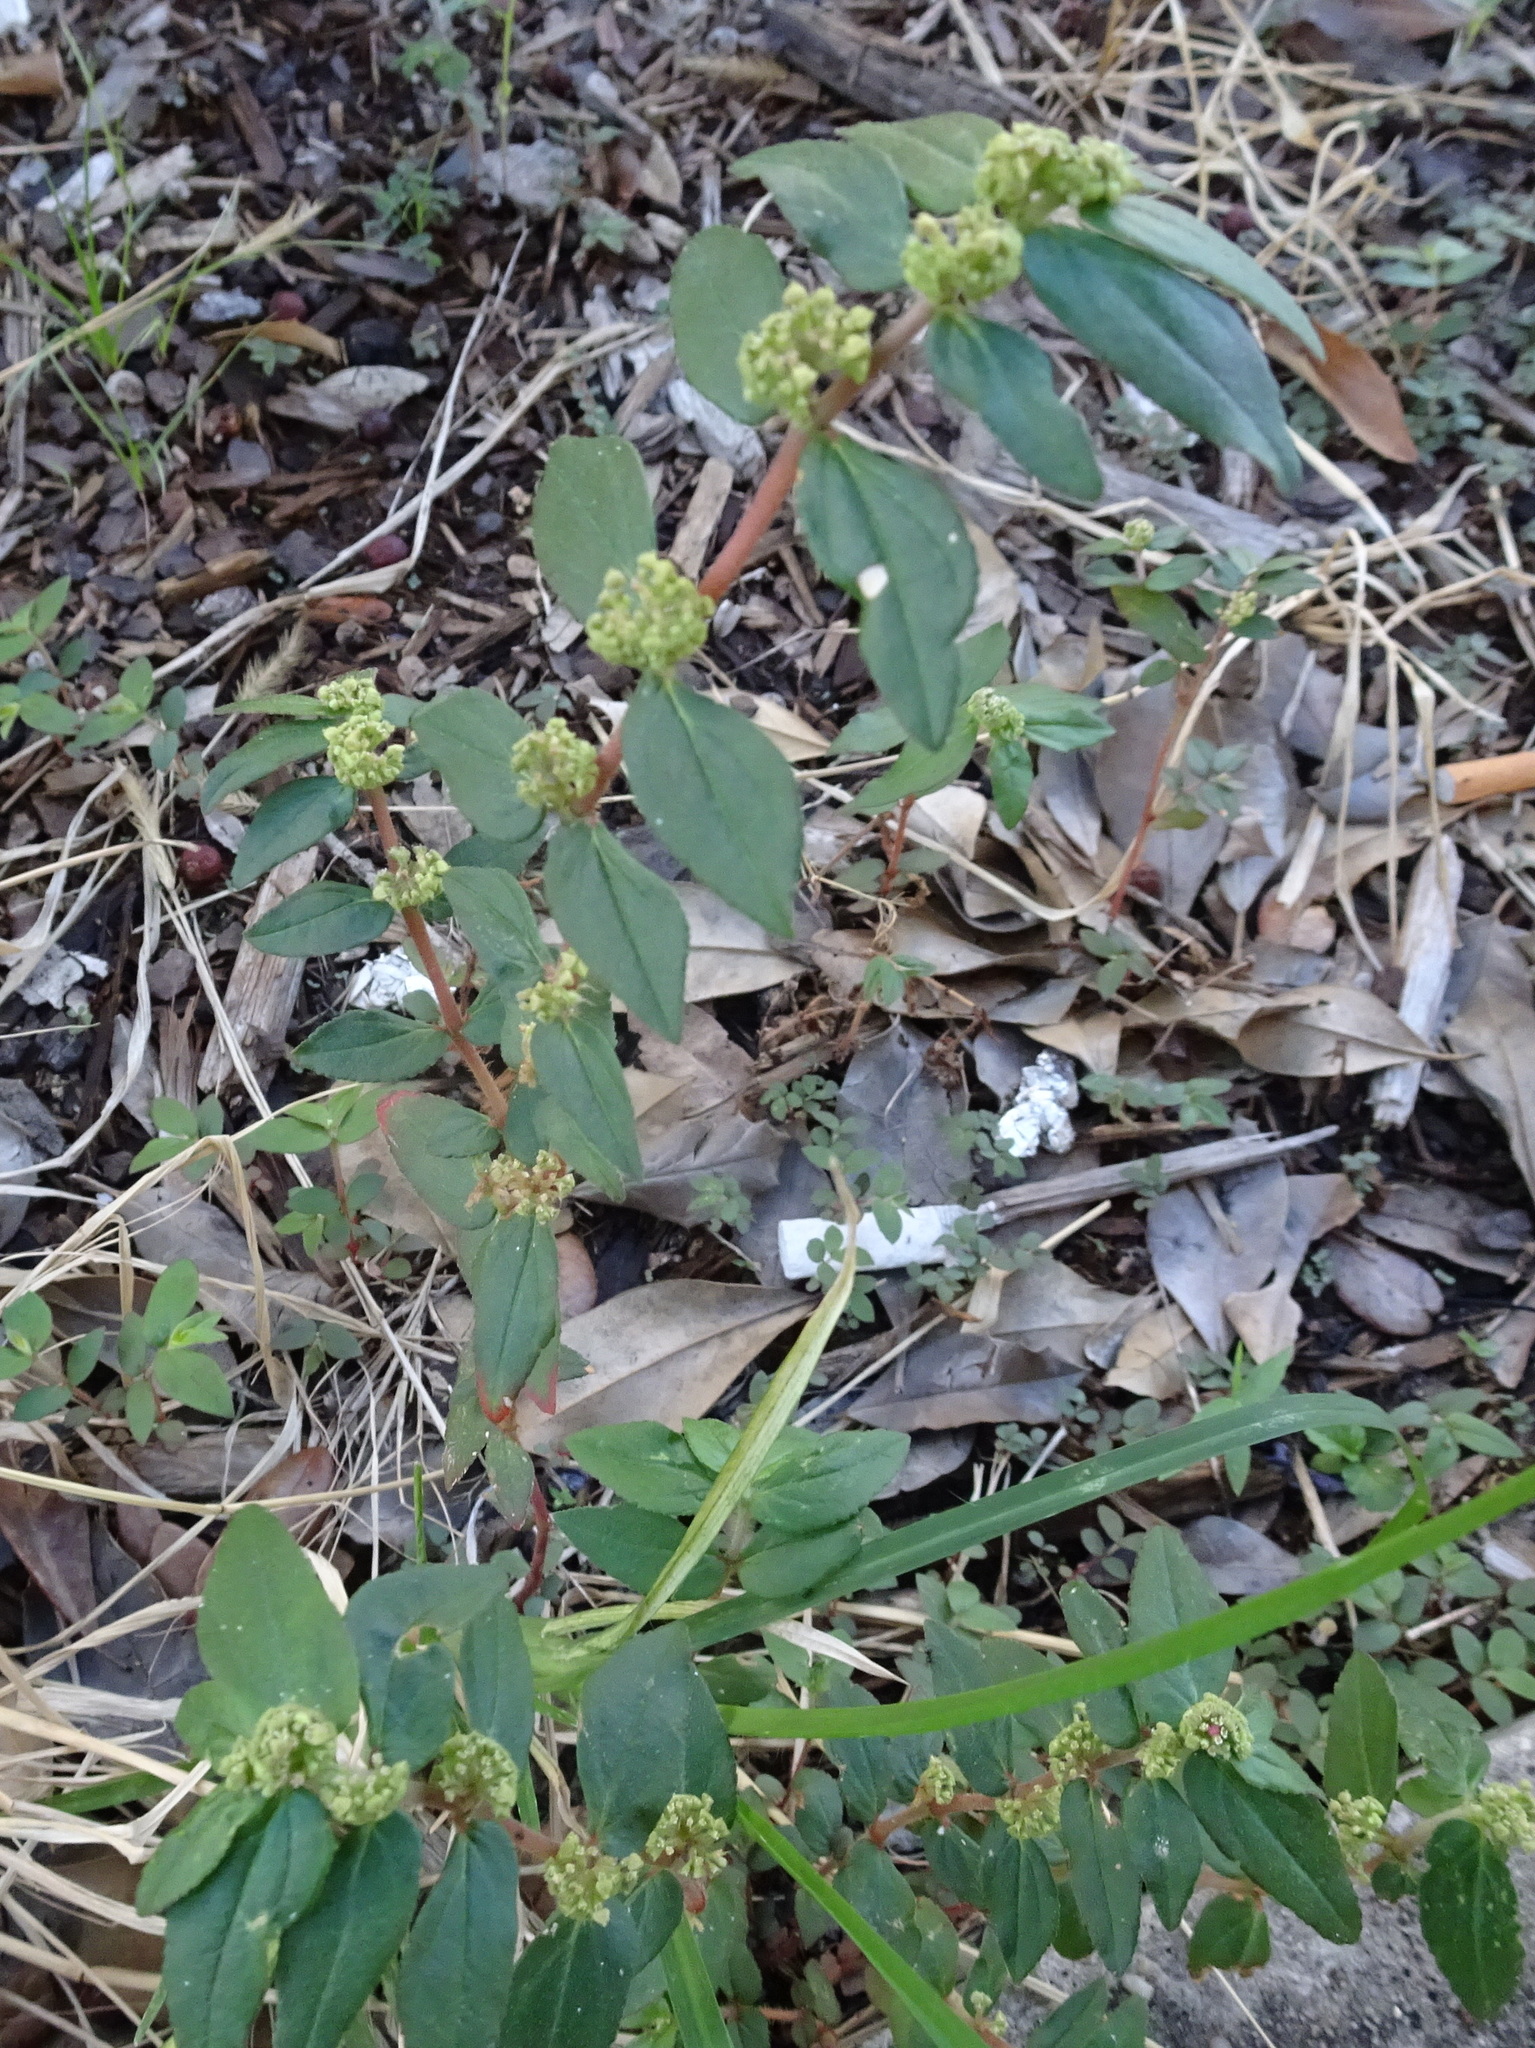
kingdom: Plantae
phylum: Tracheophyta
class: Magnoliopsida
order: Malpighiales
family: Euphorbiaceae
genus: Euphorbia
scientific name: Euphorbia hirta
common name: Pillpod sandmat
